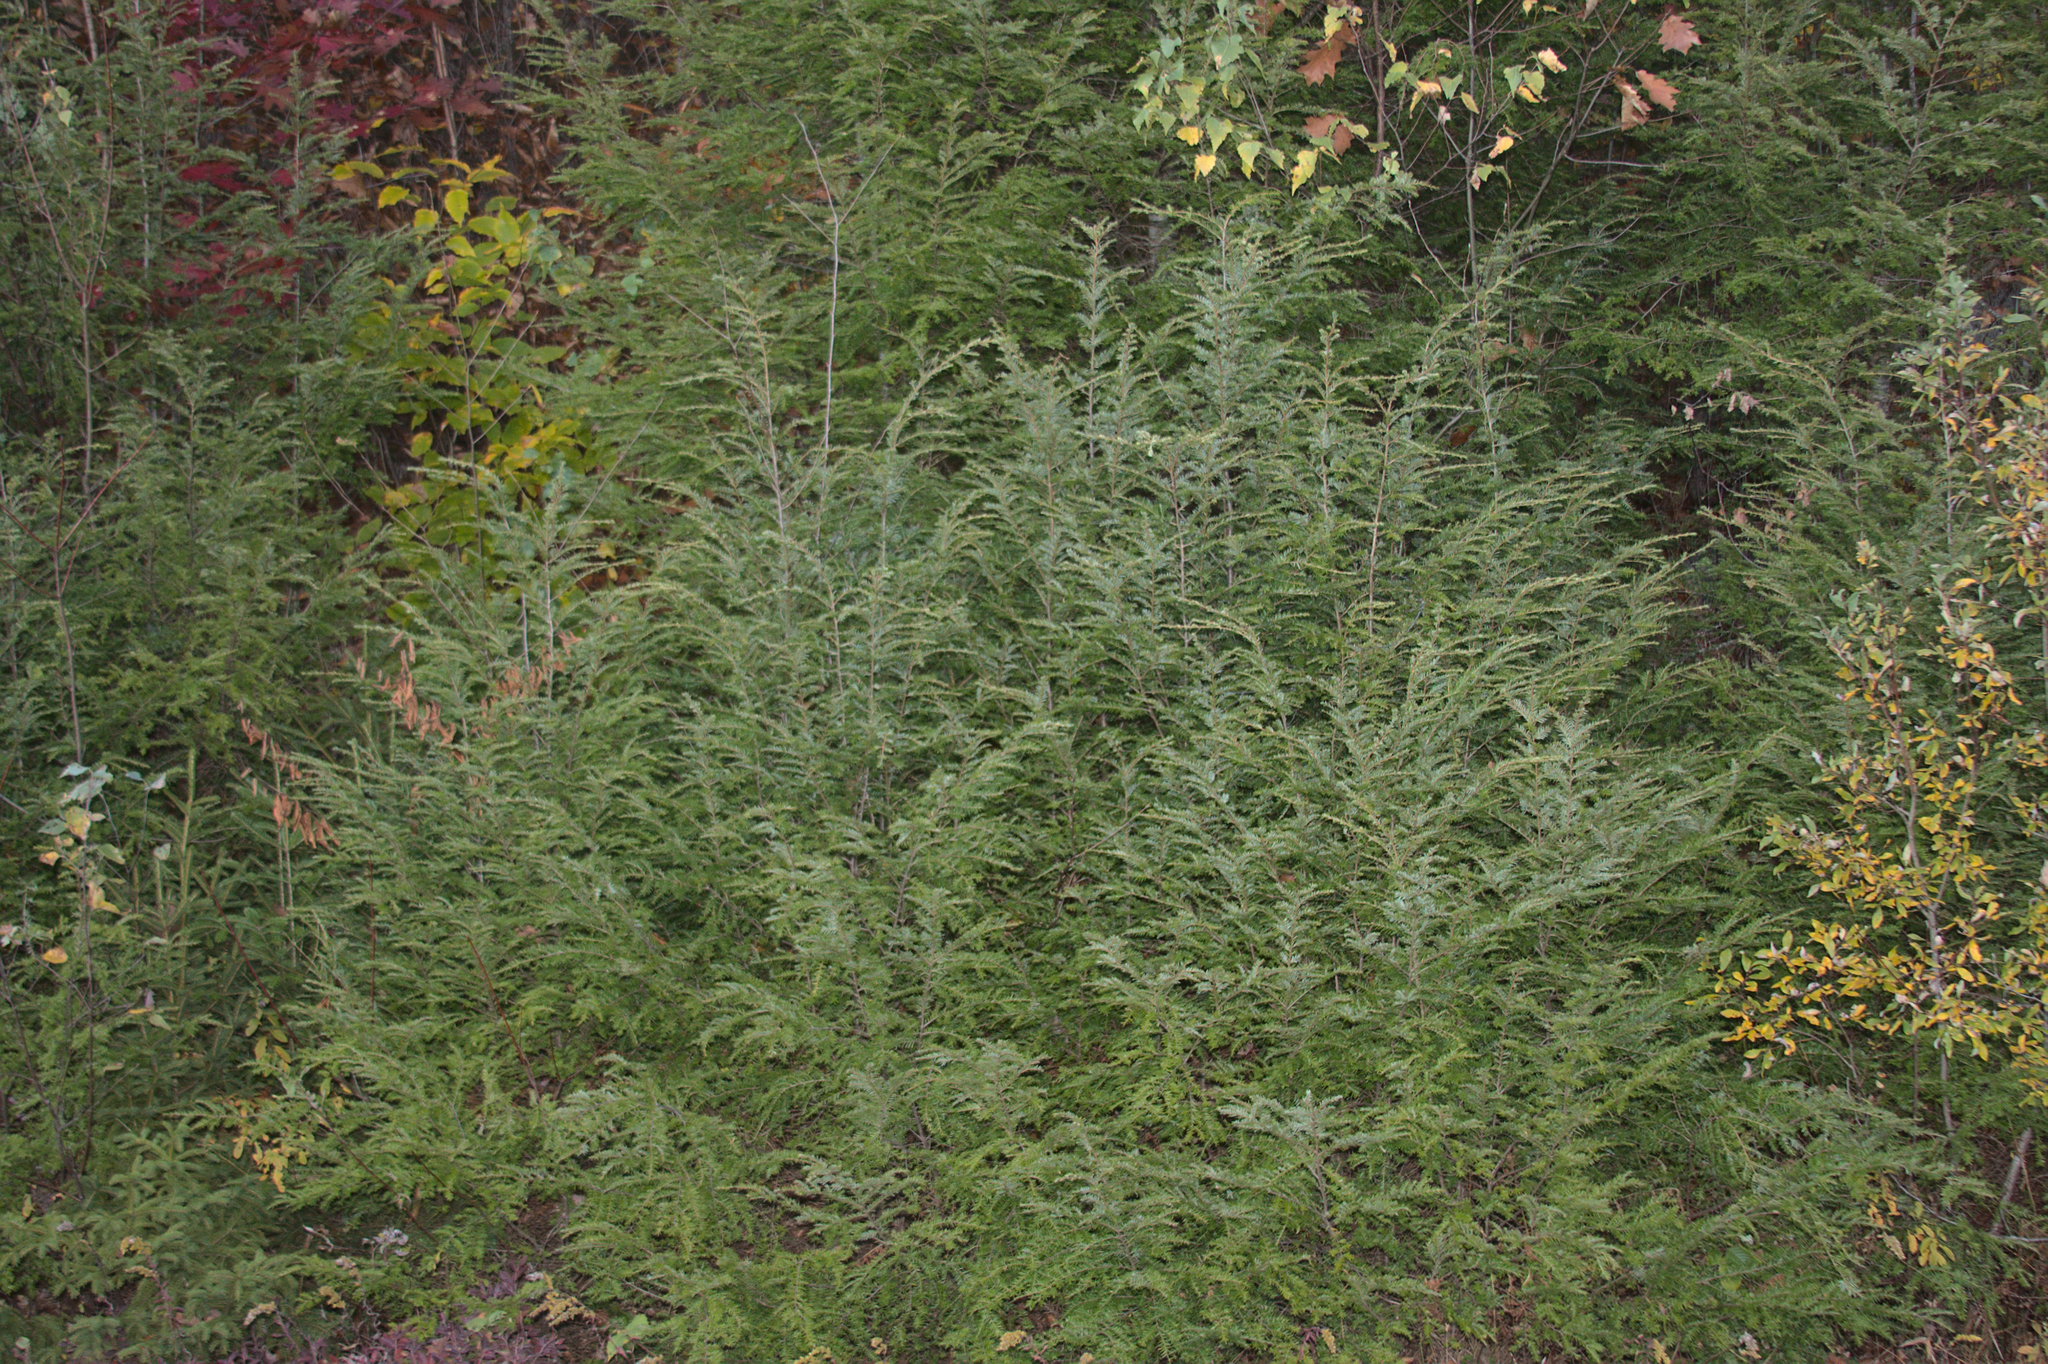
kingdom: Plantae
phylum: Tracheophyta
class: Pinopsida
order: Pinales
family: Pinaceae
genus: Tsuga
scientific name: Tsuga canadensis
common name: Eastern hemlock
